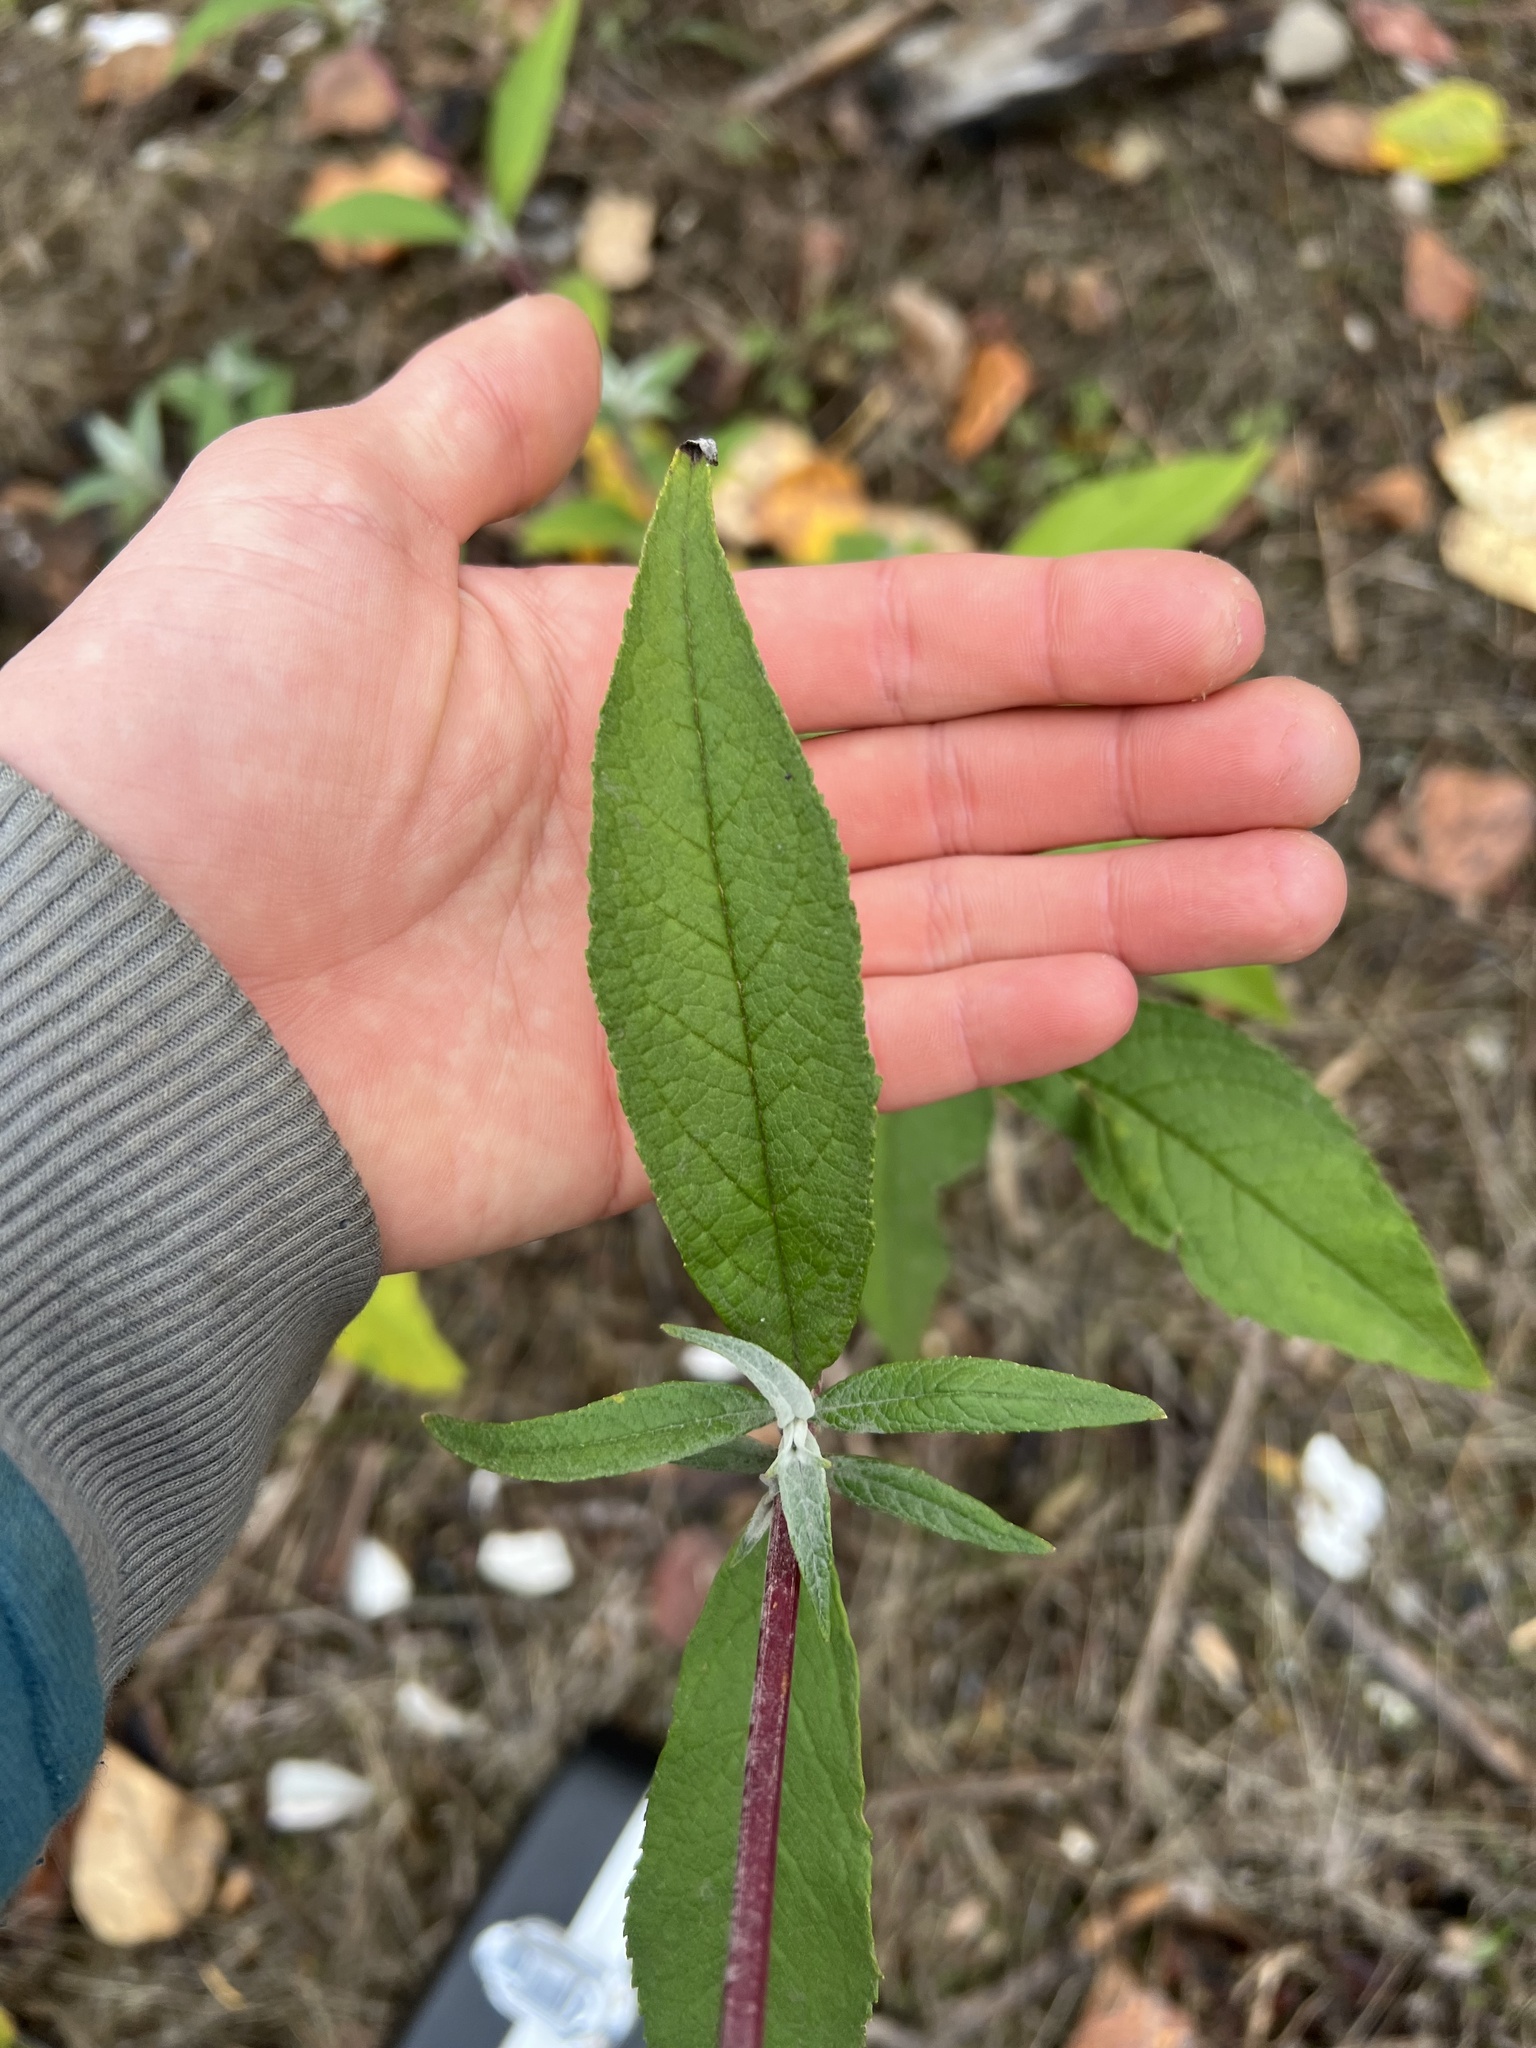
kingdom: Plantae
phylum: Tracheophyta
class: Magnoliopsida
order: Lamiales
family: Scrophulariaceae
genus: Buddleja
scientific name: Buddleja davidii
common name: Butterfly-bush
